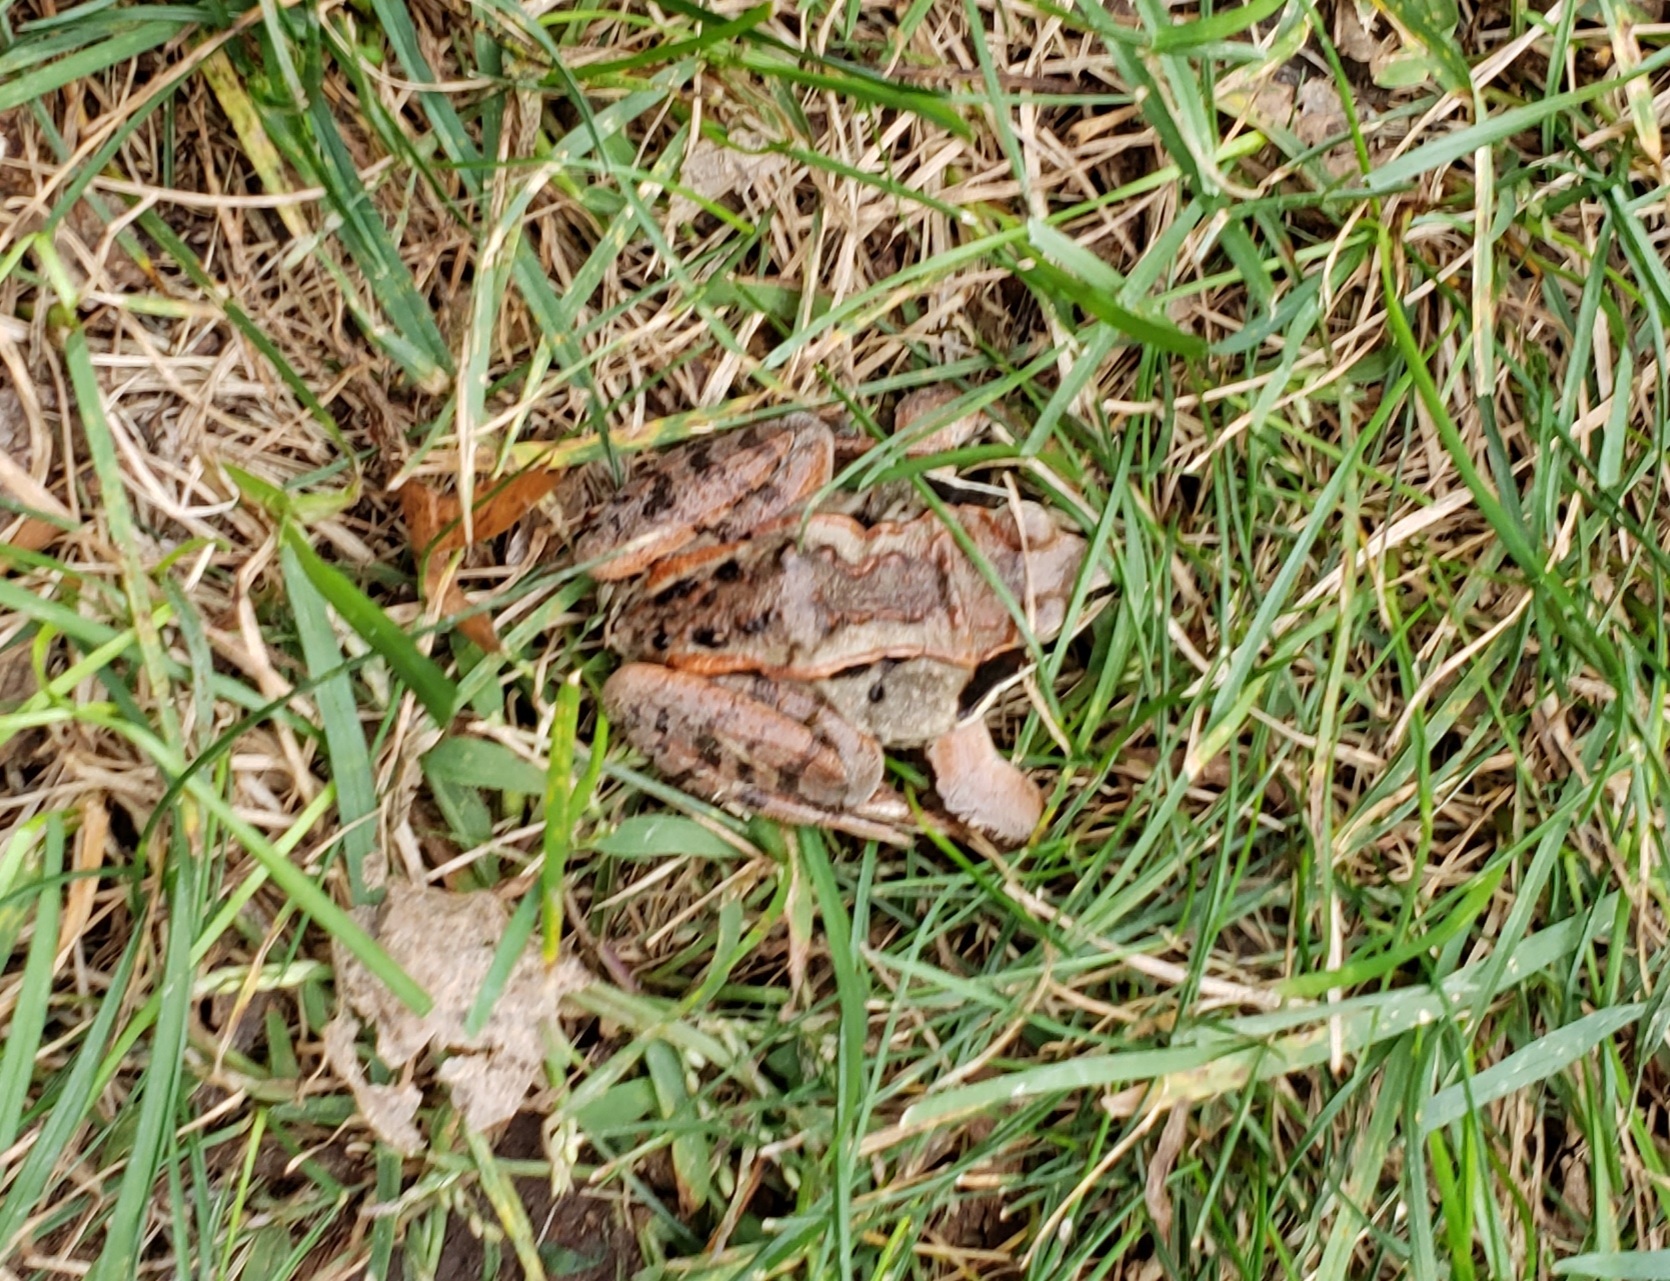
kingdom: Animalia
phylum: Chordata
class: Amphibia
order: Anura
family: Ranidae
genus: Lithobates
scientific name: Lithobates sylvaticus
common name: Wood frog
